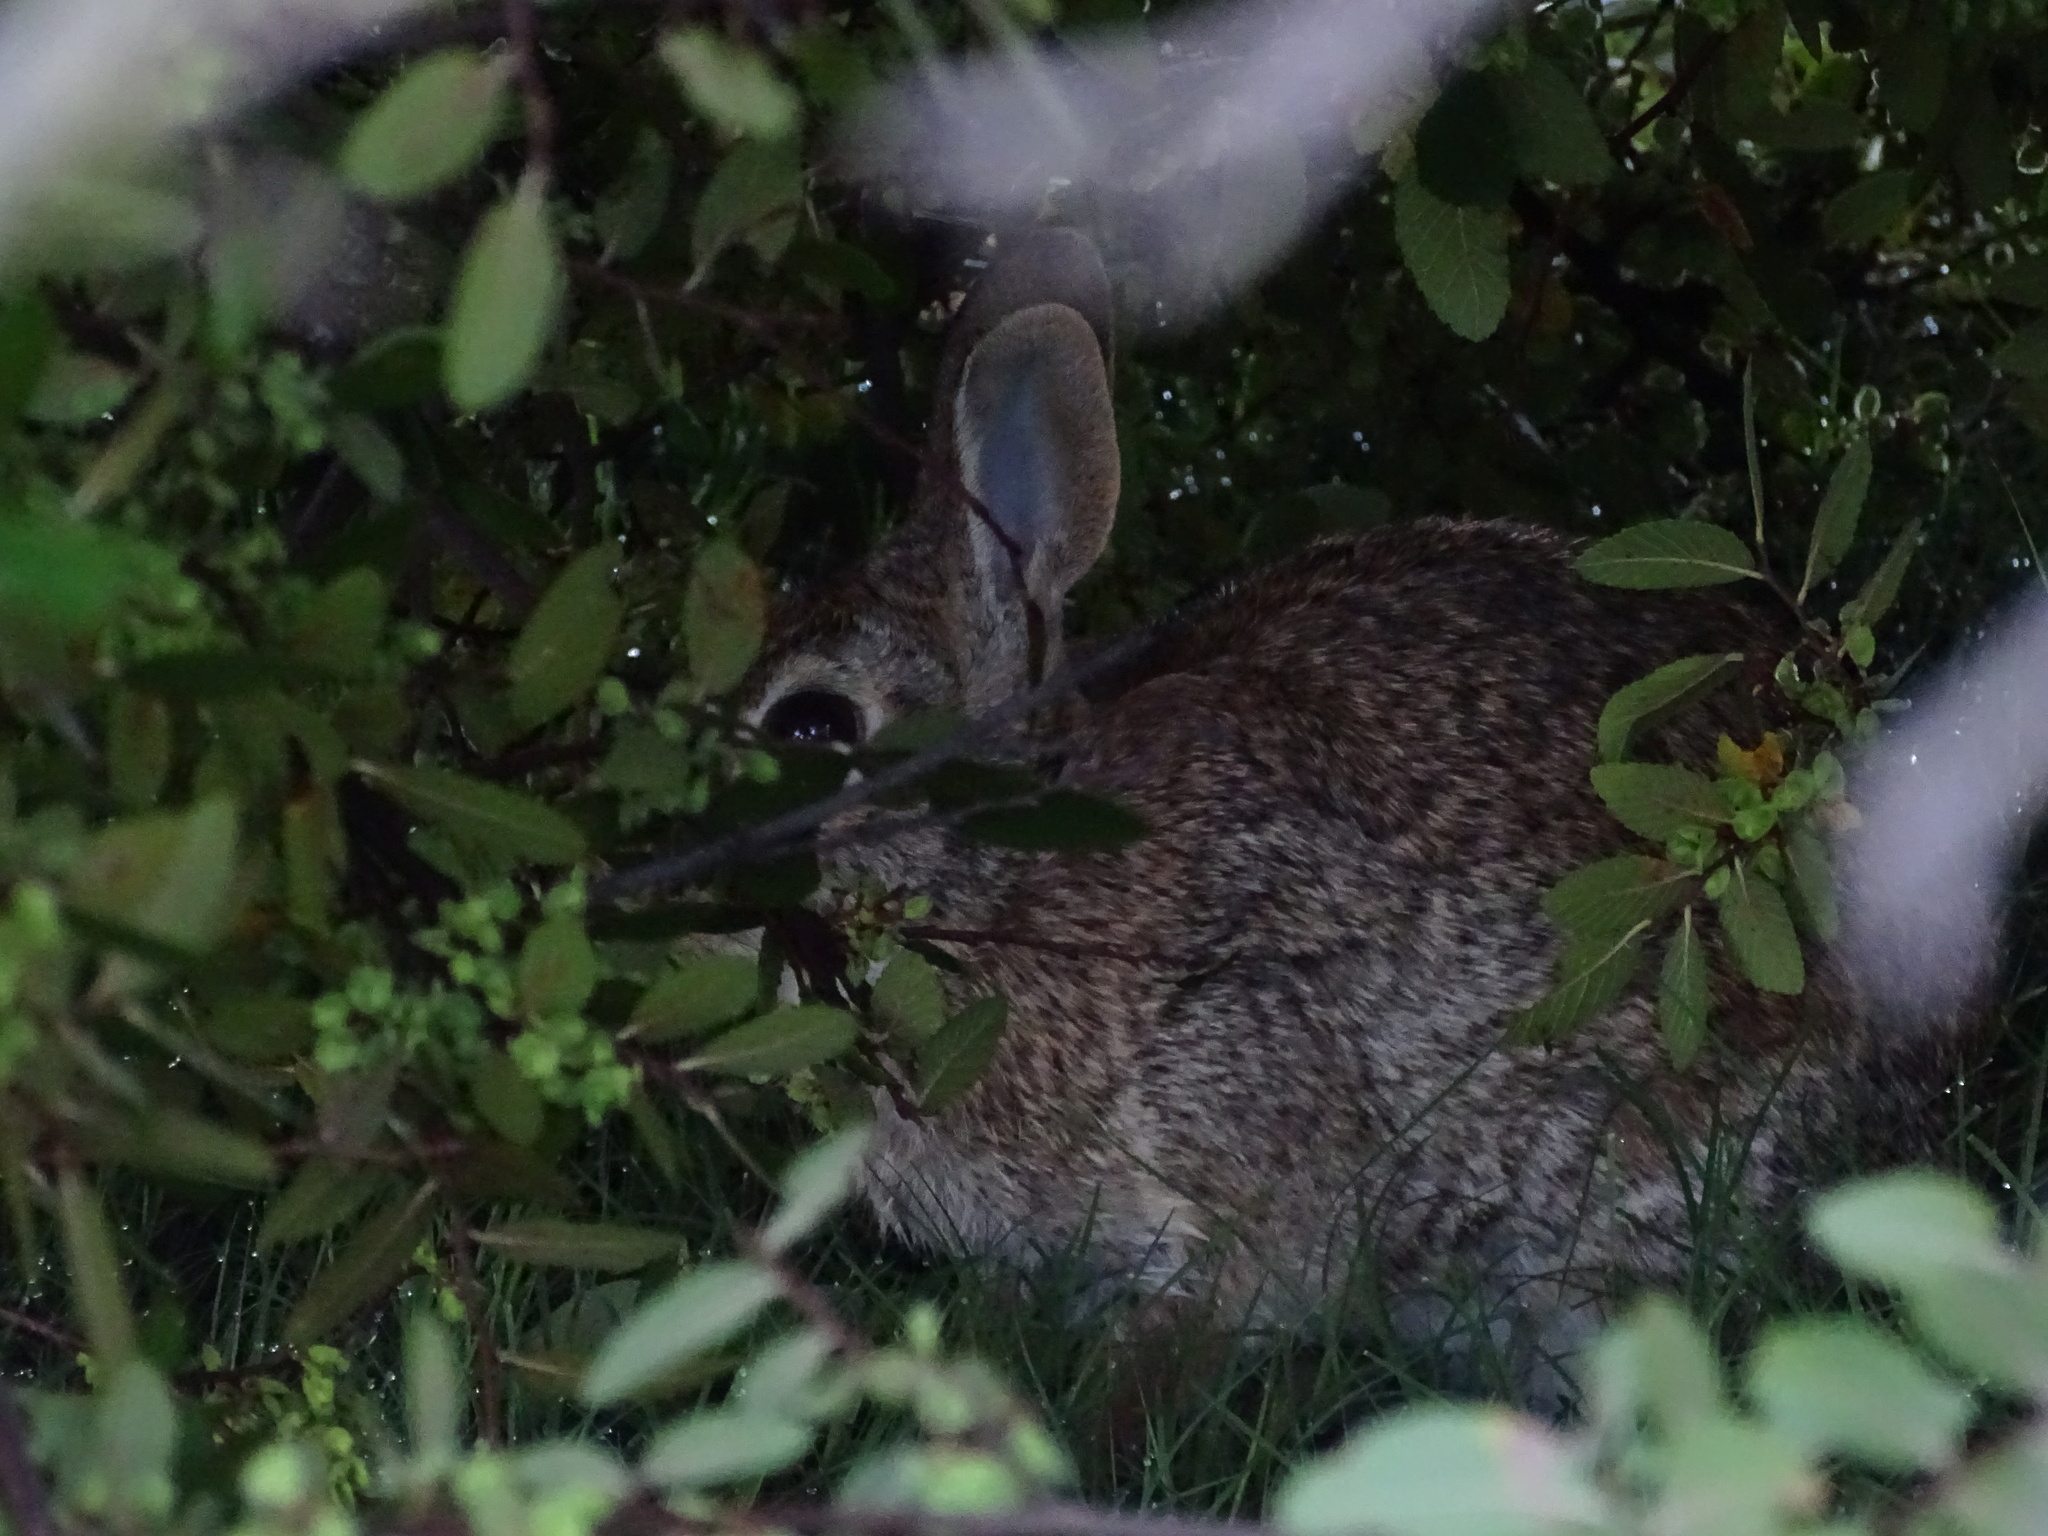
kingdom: Animalia
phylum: Chordata
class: Mammalia
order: Lagomorpha
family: Leporidae
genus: Sylvilagus
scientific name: Sylvilagus floridanus
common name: Eastern cottontail
